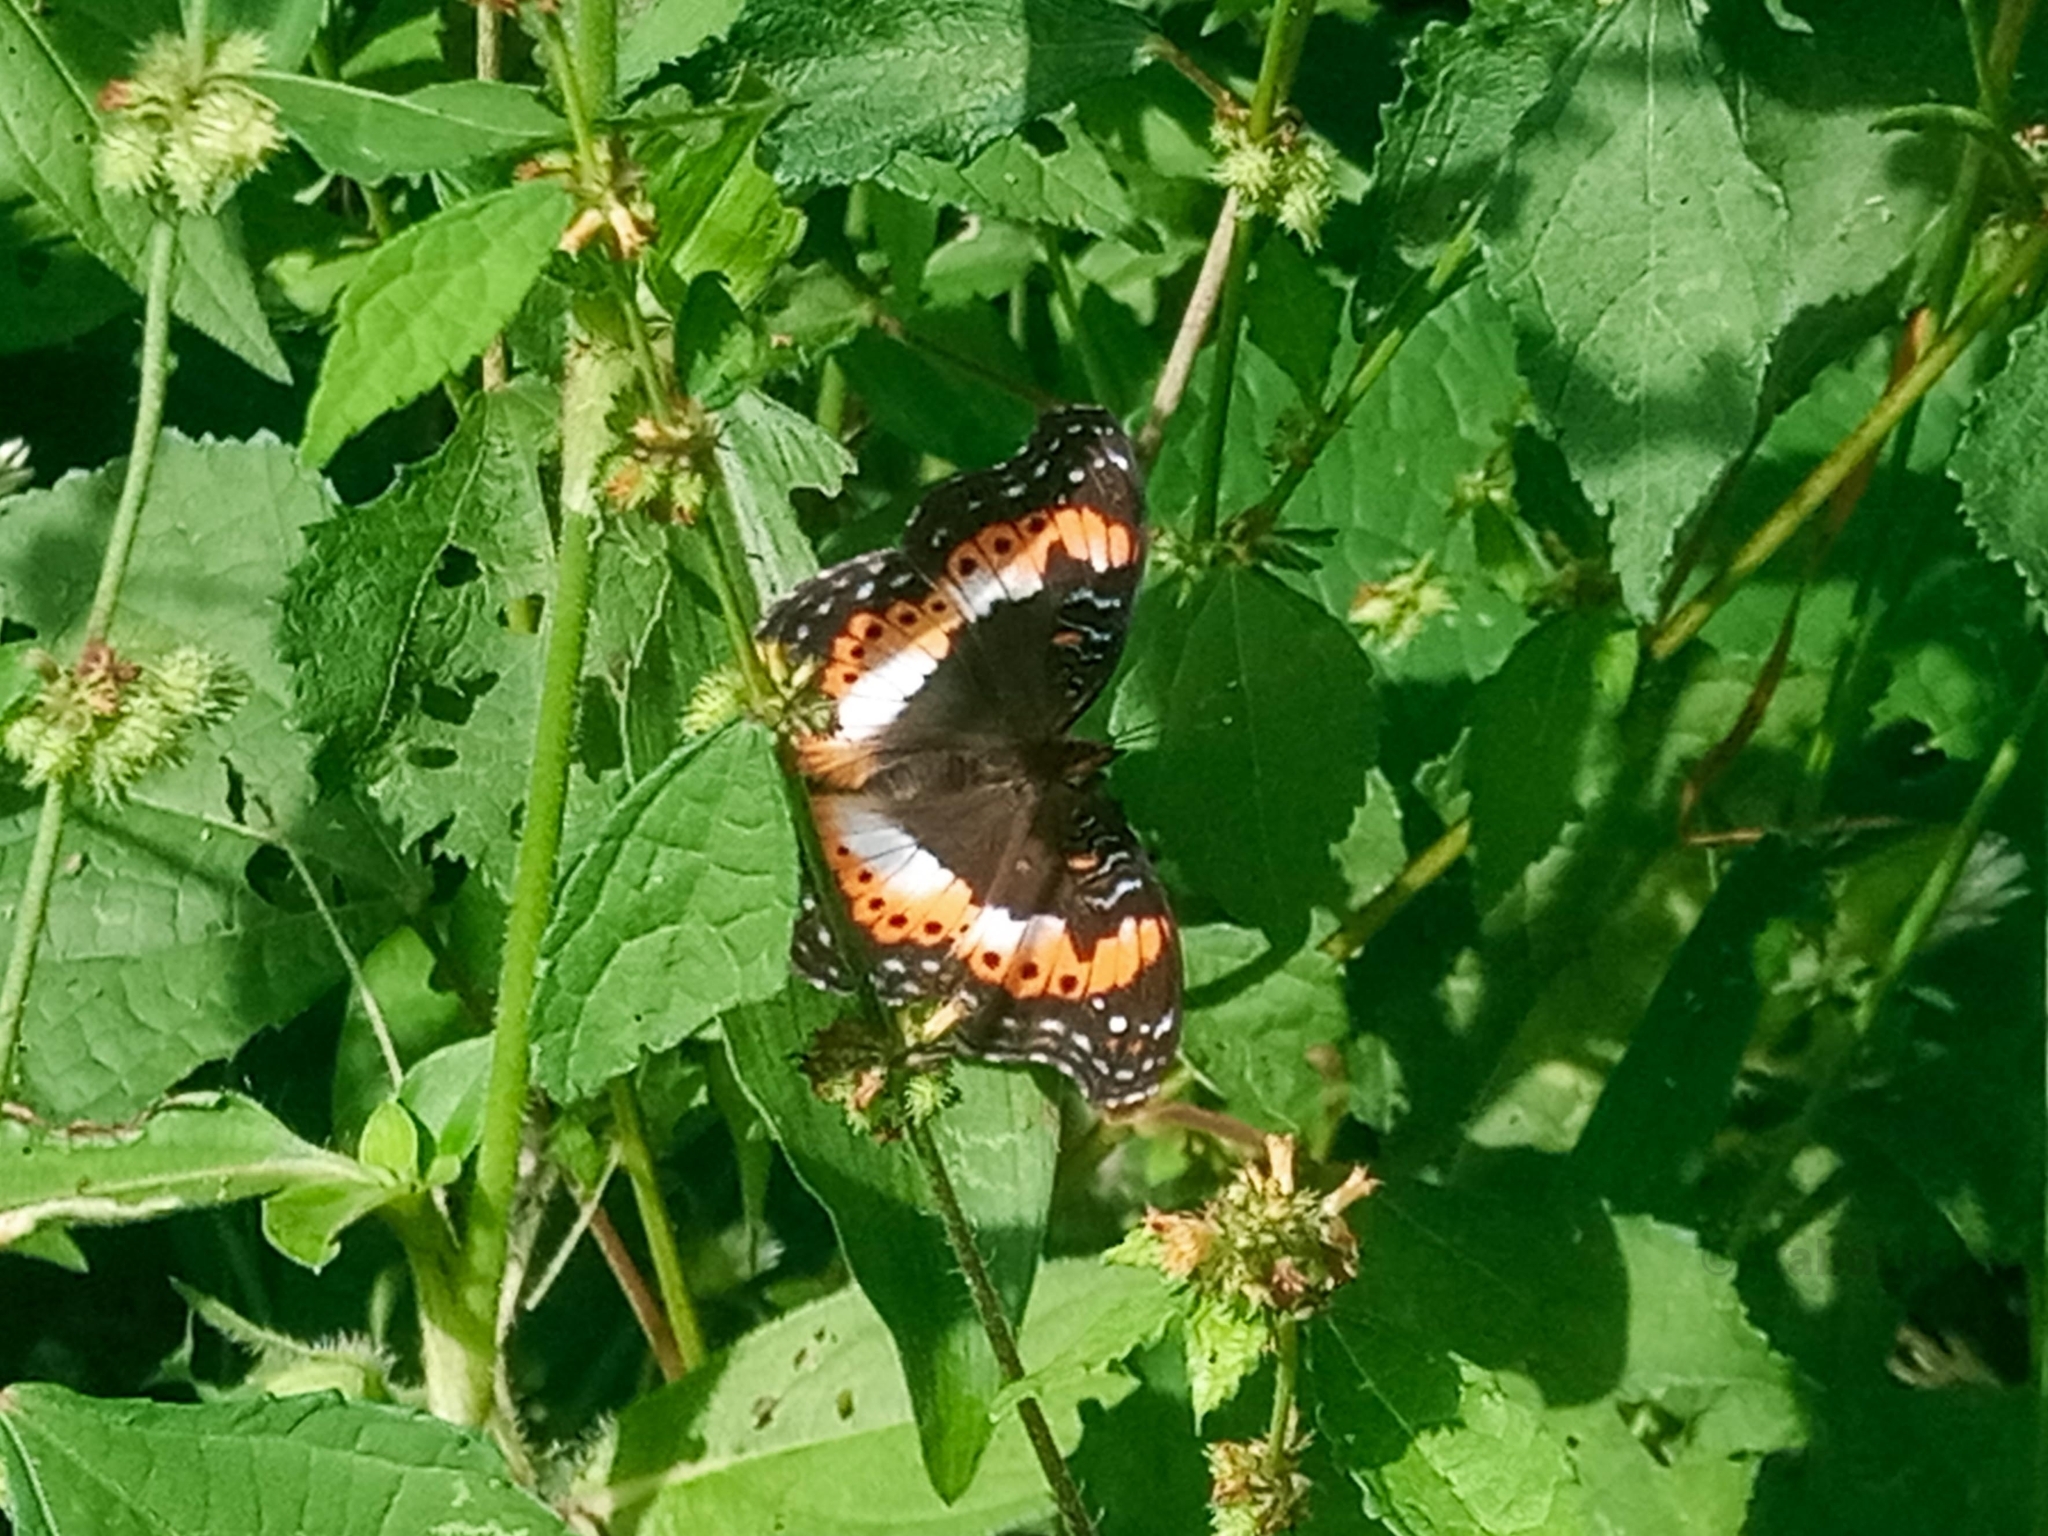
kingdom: Animalia
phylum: Arthropoda
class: Insecta
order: Lepidoptera
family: Nymphalidae
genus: Precis
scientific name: Precis pelarga
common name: Fashion commodore
